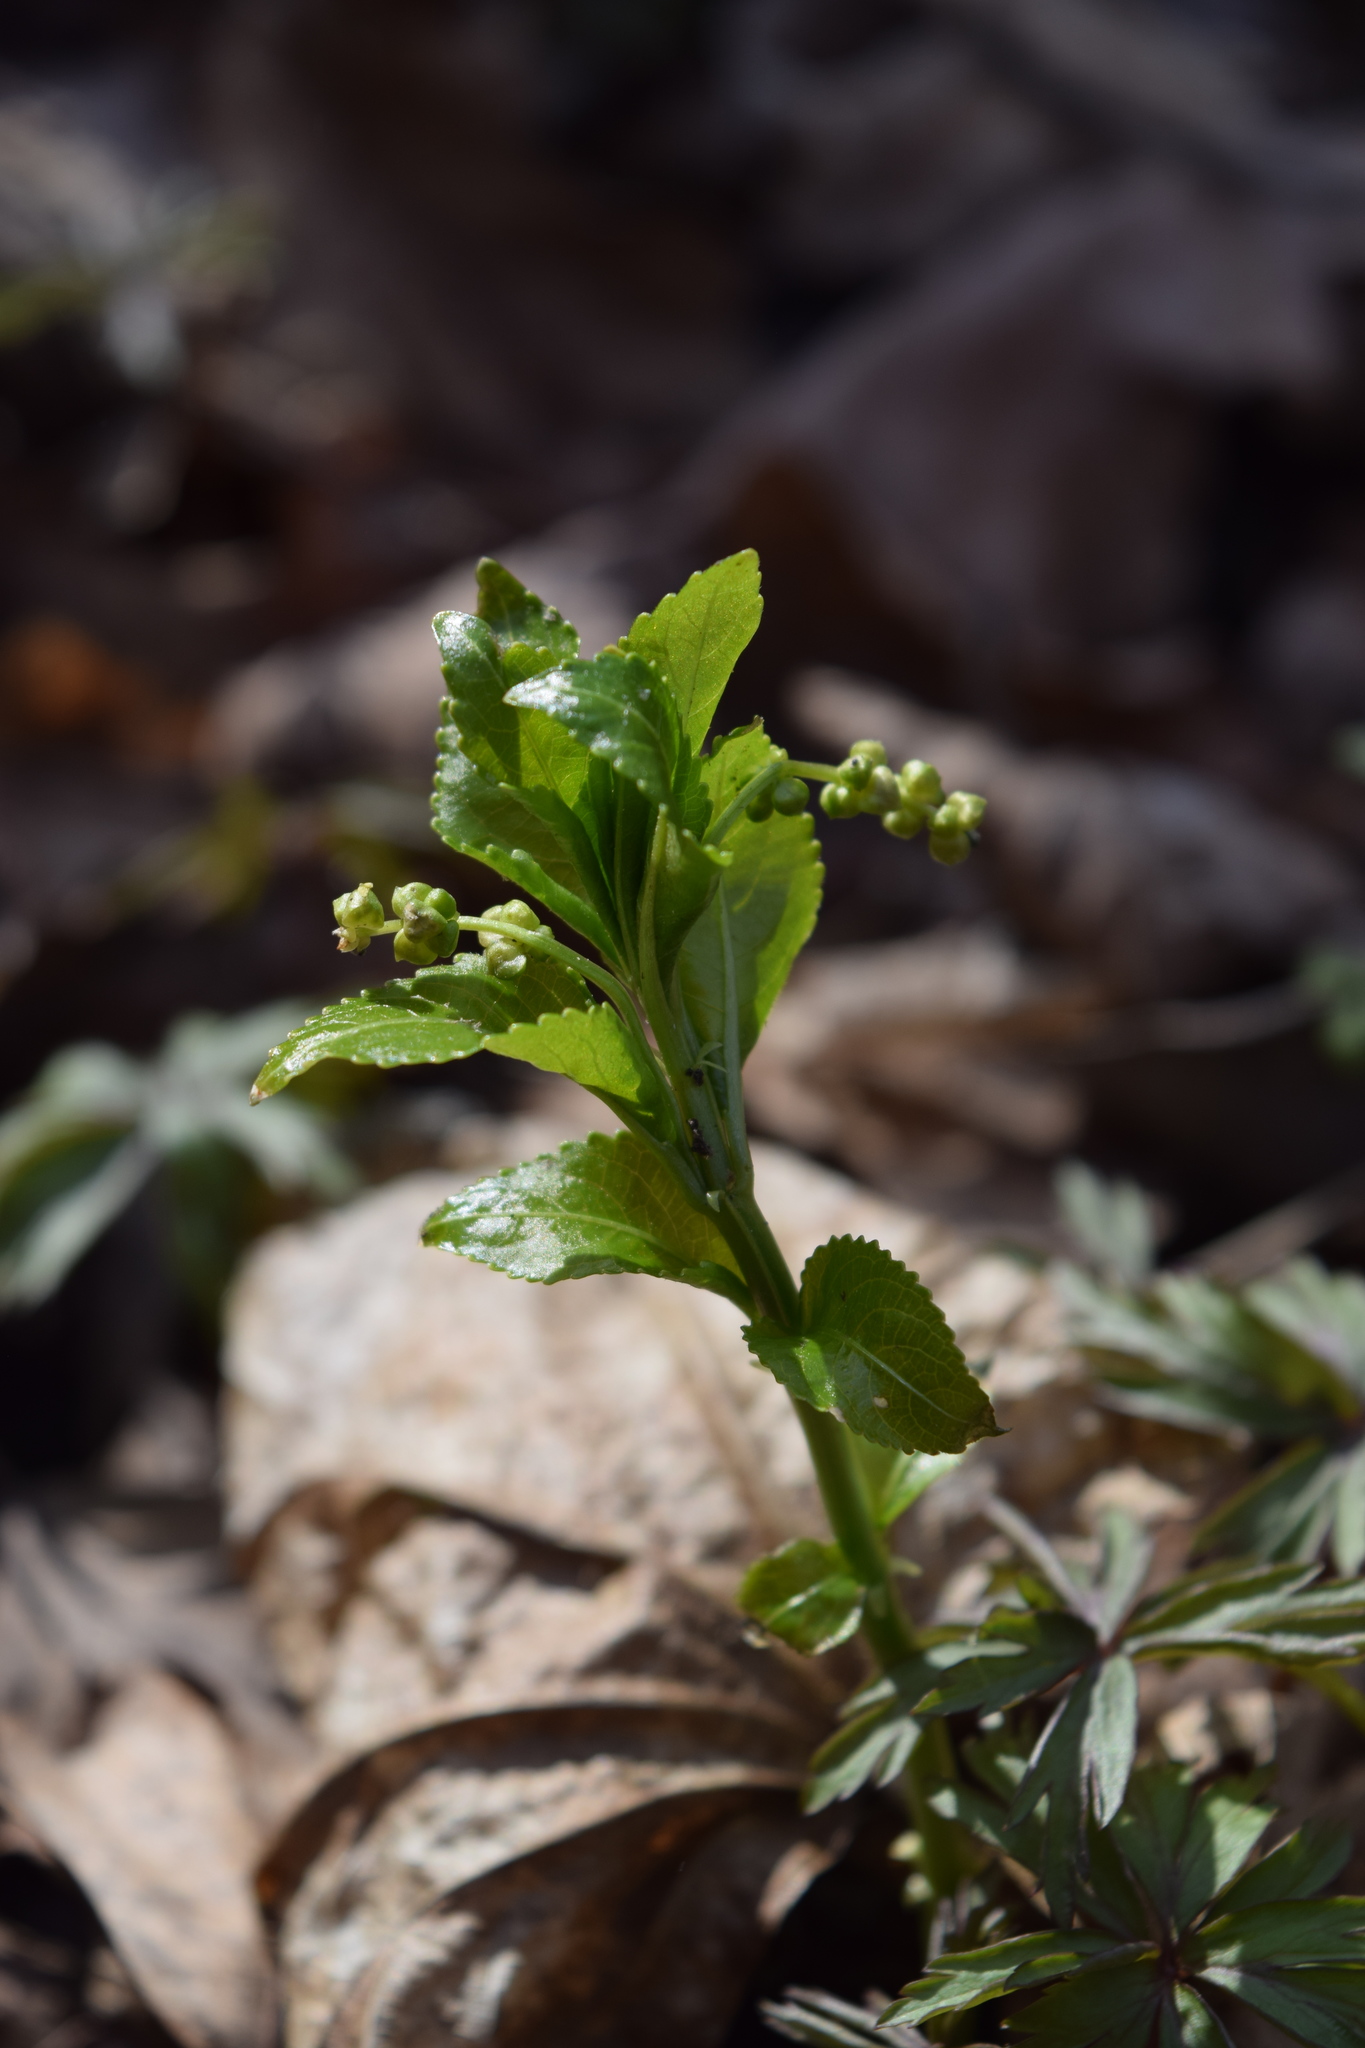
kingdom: Plantae
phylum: Tracheophyta
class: Magnoliopsida
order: Malpighiales
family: Euphorbiaceae
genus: Mercurialis
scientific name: Mercurialis perennis
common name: Dog mercury
